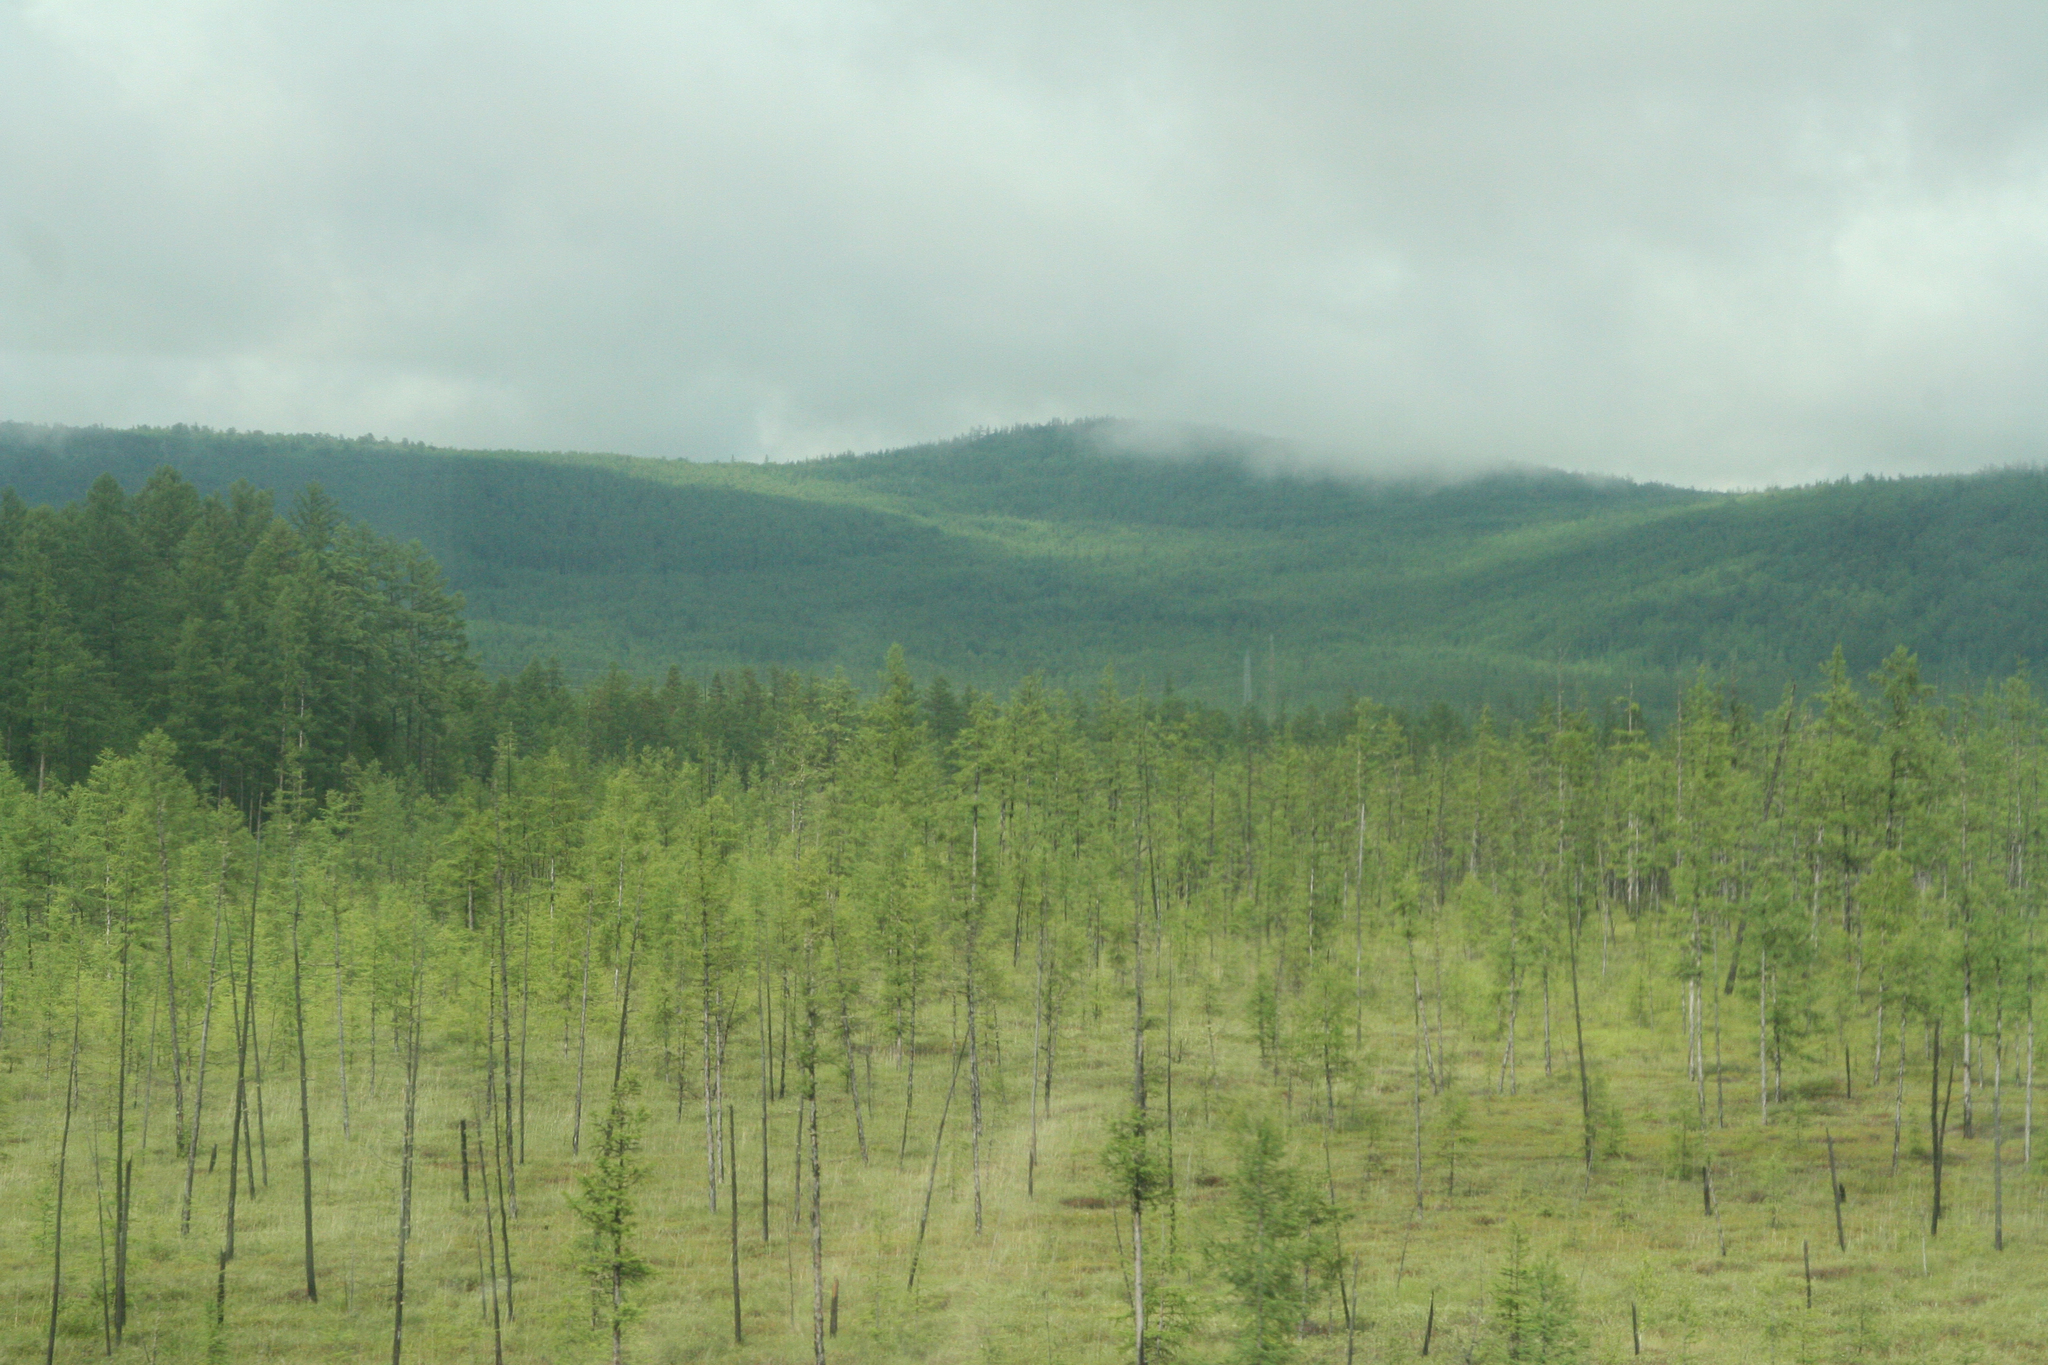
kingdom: Plantae
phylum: Tracheophyta
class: Pinopsida
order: Pinales
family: Pinaceae
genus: Larix
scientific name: Larix gmelinii
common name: Dahurian larch
